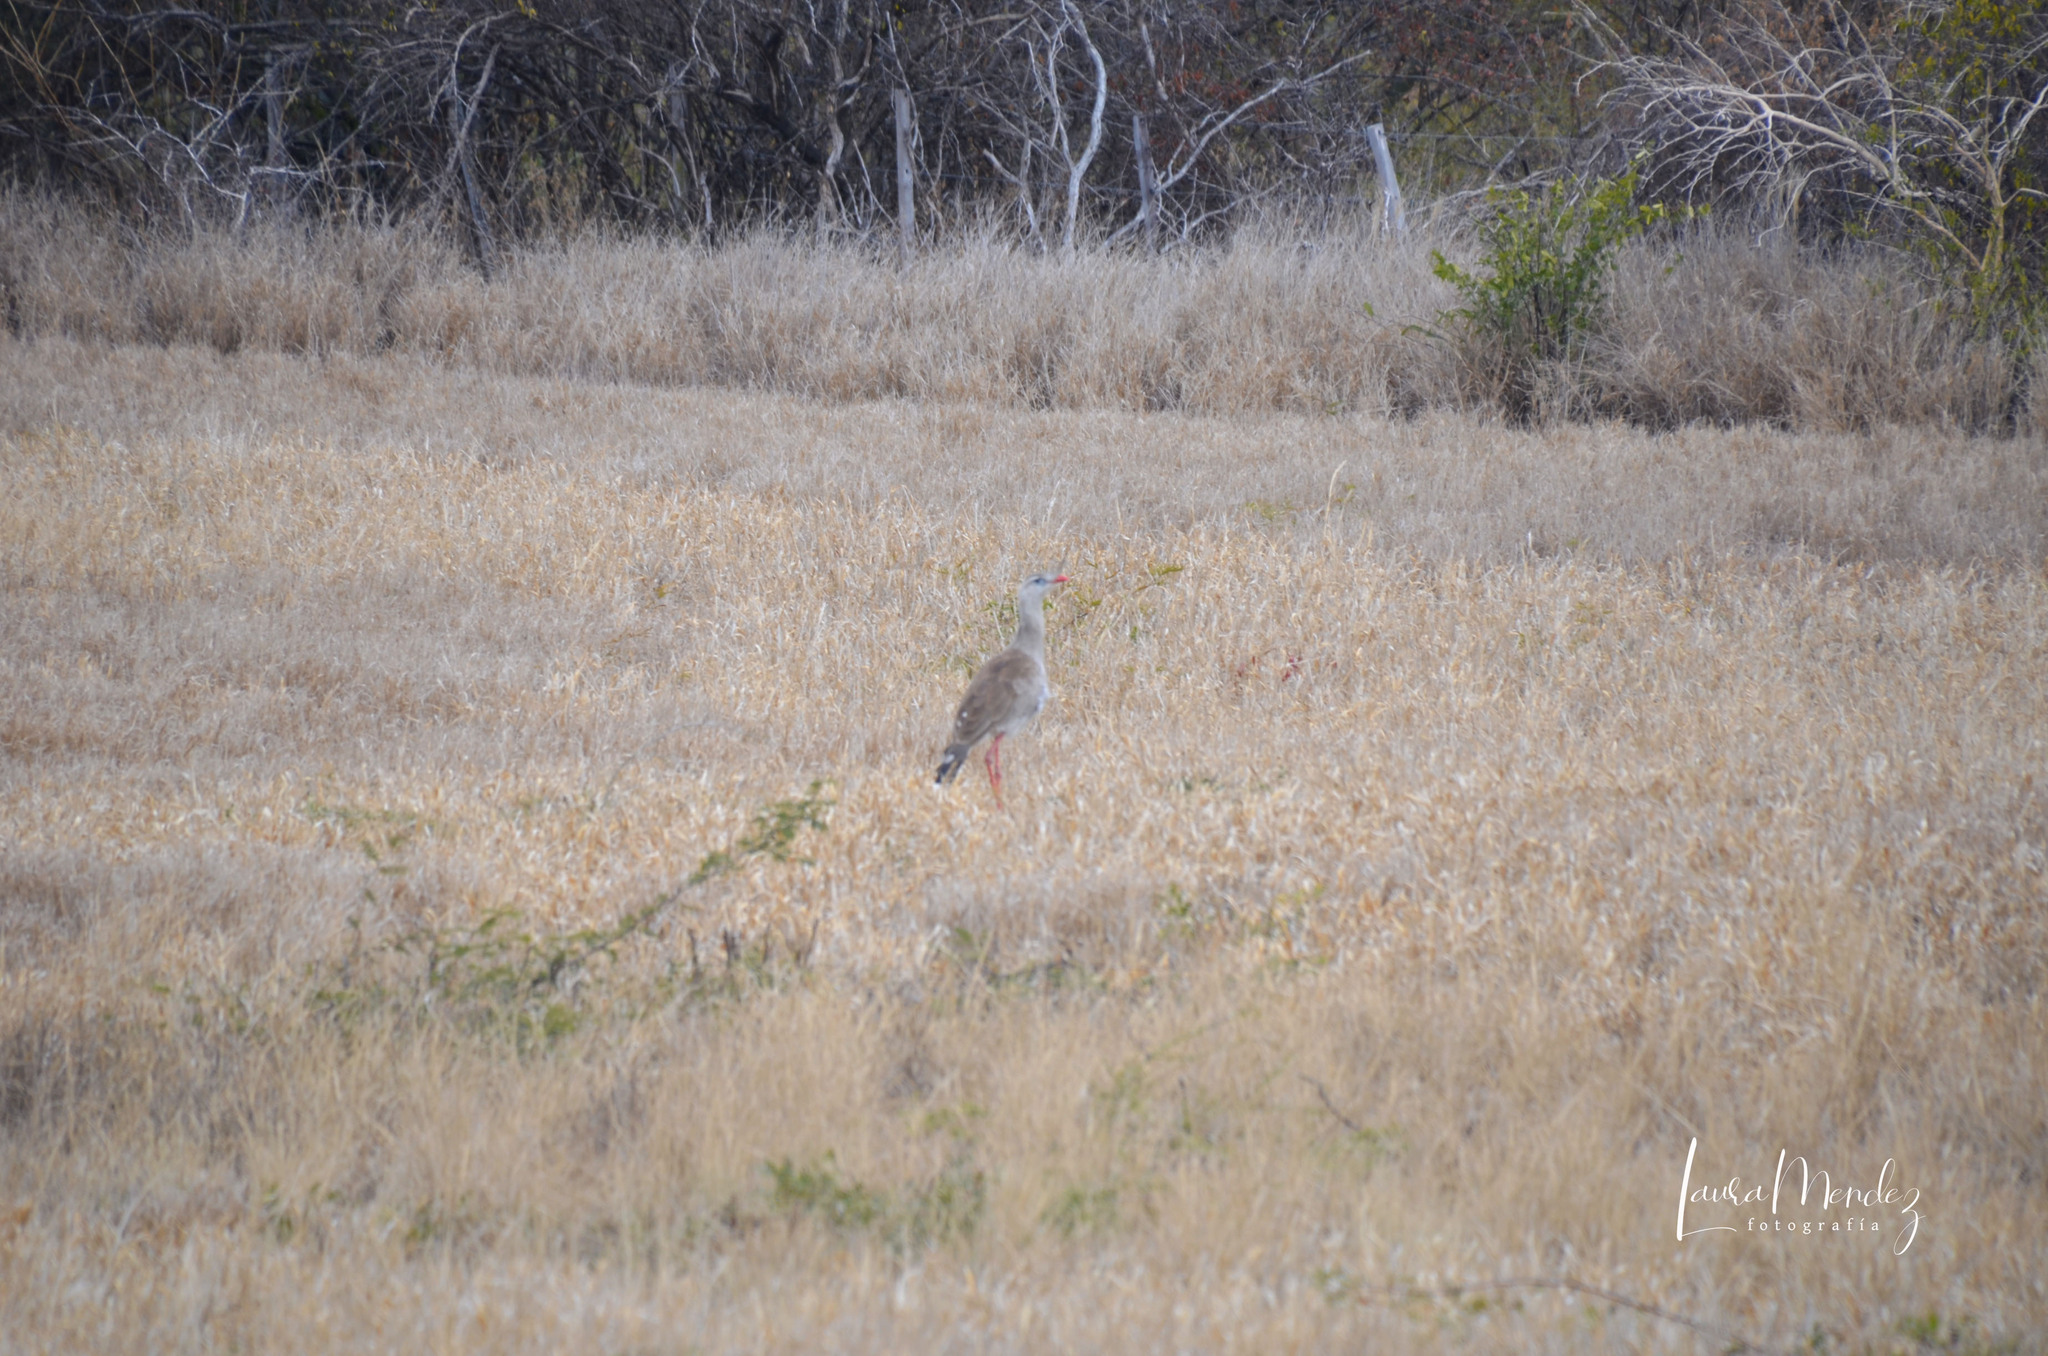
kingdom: Animalia
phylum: Chordata
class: Aves
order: Cariamiformes
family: Cariamidae
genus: Cariama
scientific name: Cariama cristata
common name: Red-legged seriema
